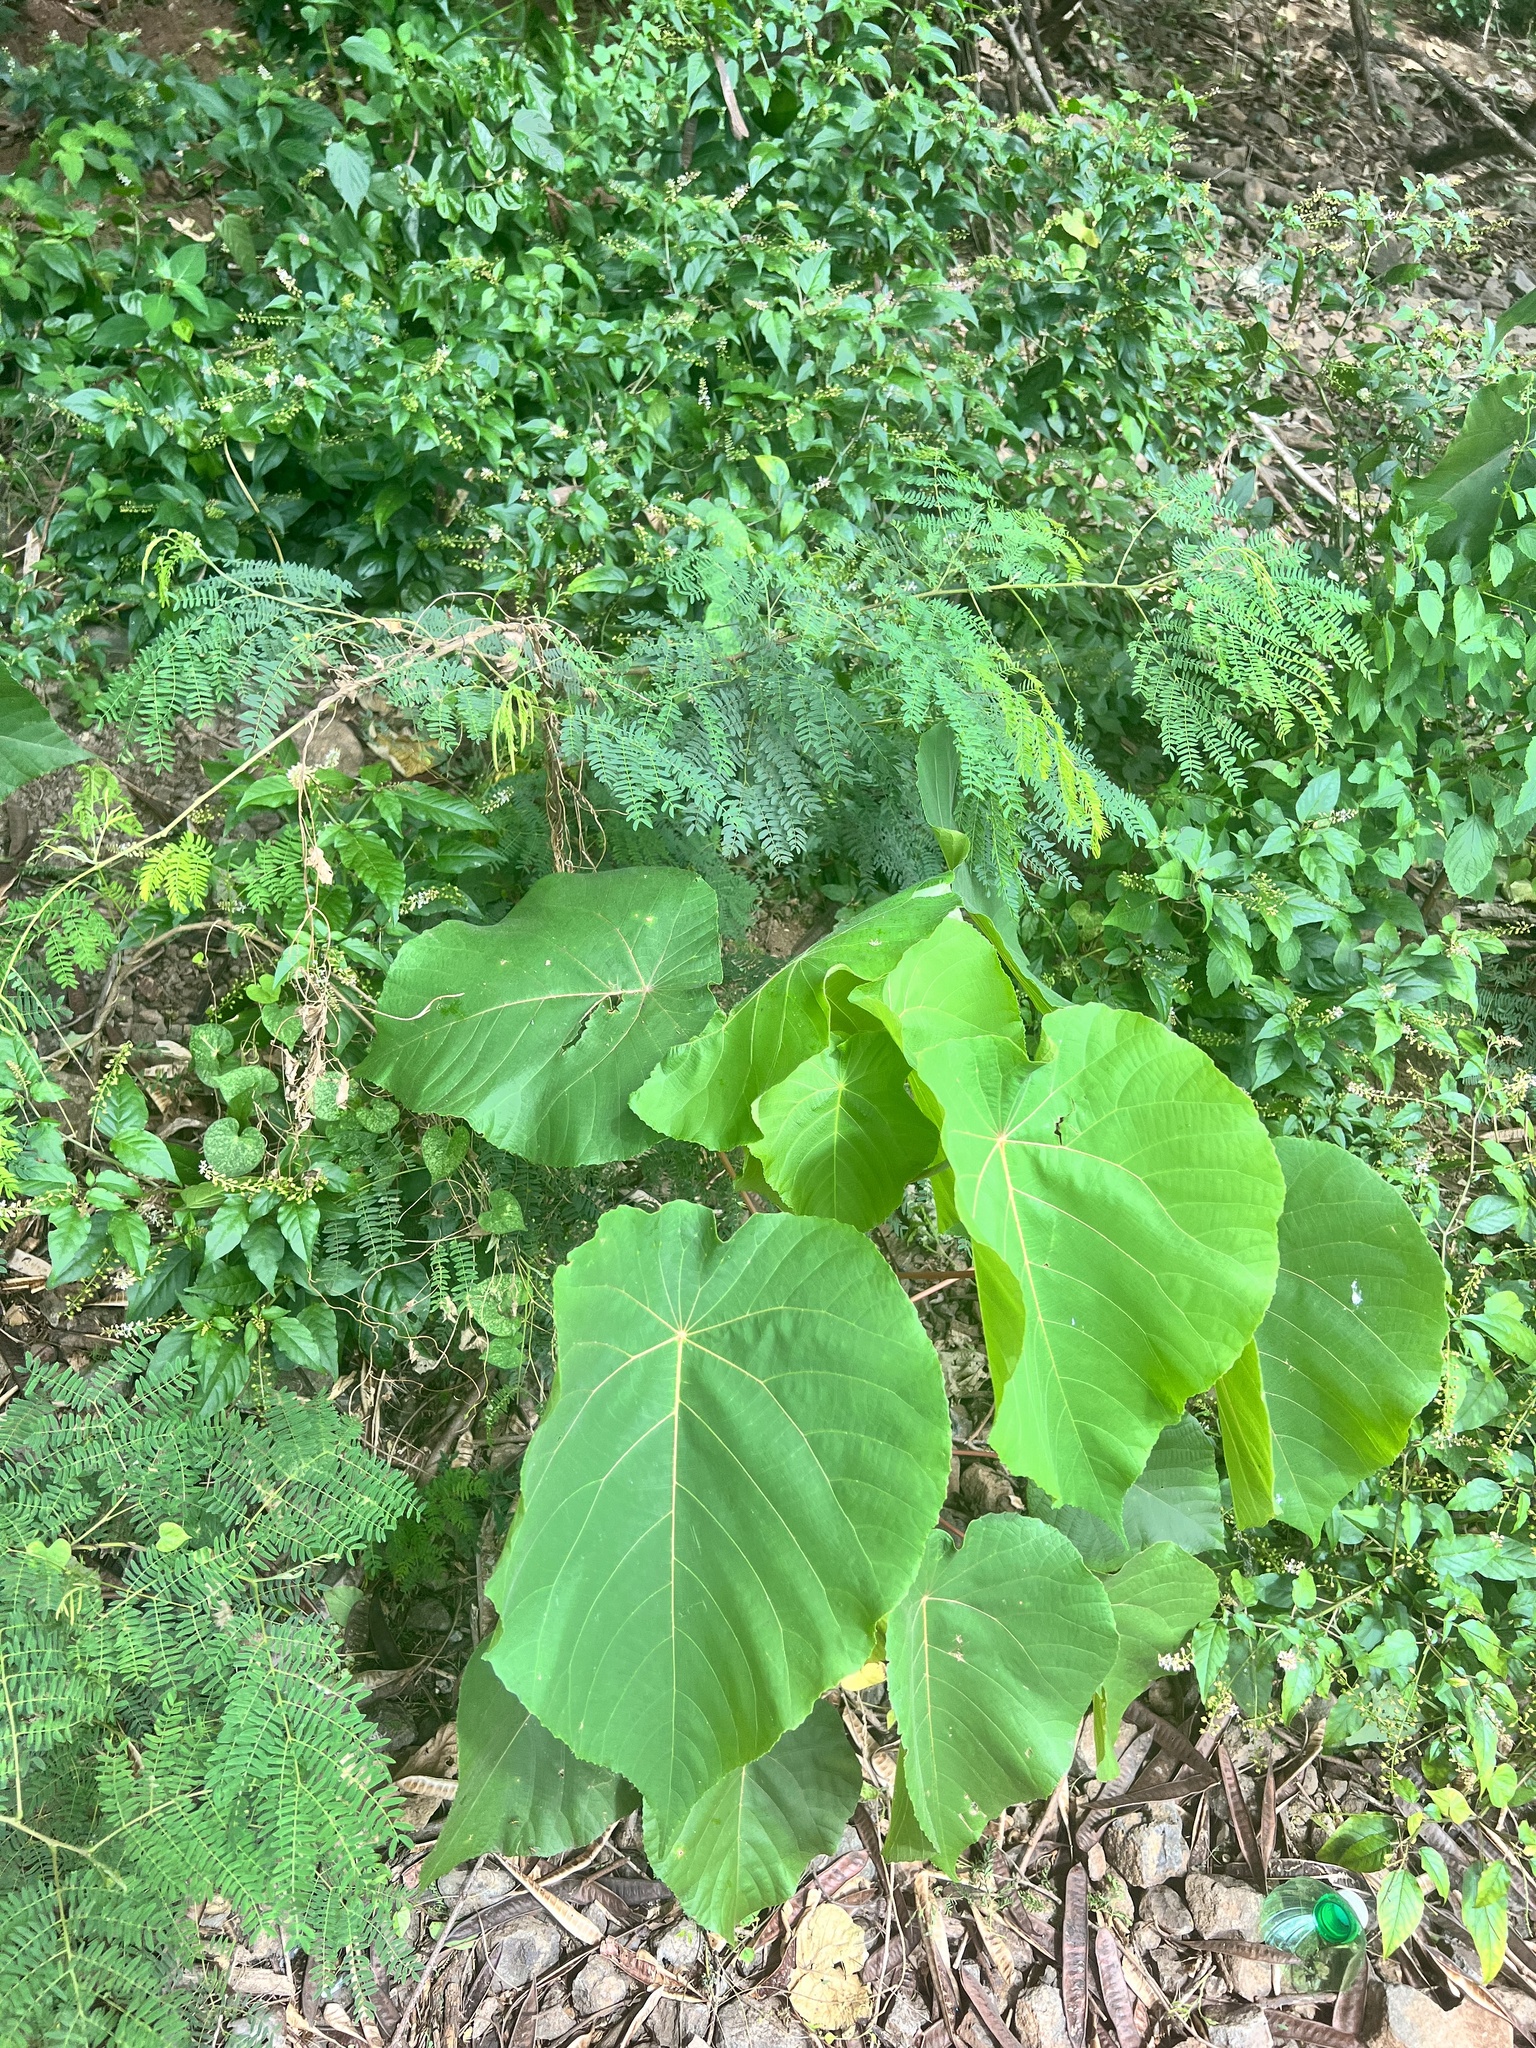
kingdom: Plantae
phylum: Tracheophyta
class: Magnoliopsida
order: Malpighiales
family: Euphorbiaceae
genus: Macaranga
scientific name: Macaranga tanarius
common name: Parasol leaf tree
